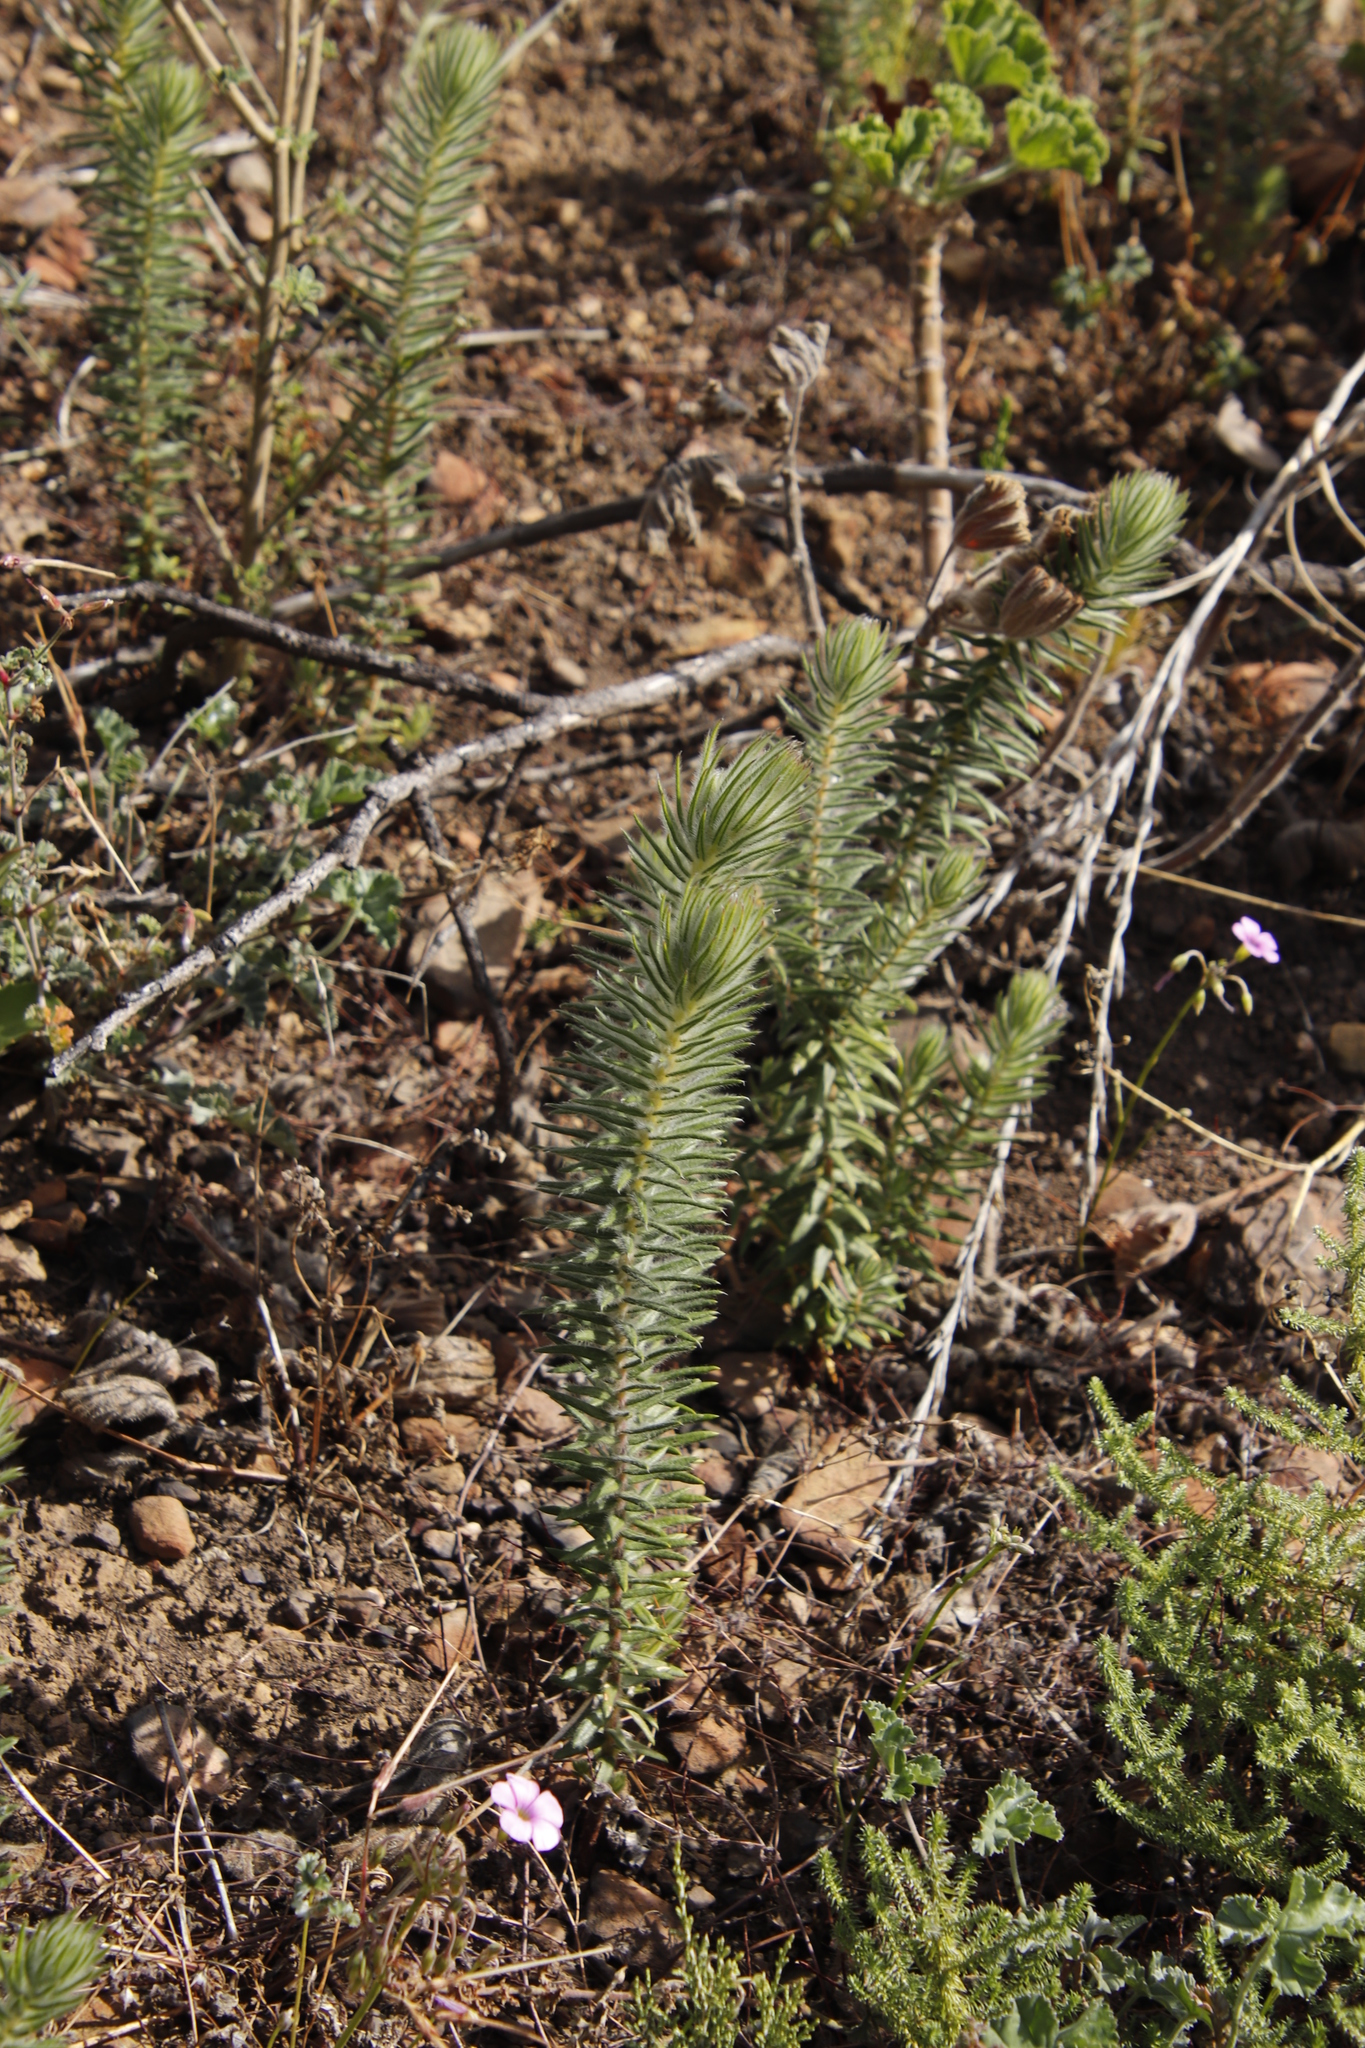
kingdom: Plantae
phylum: Tracheophyta
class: Magnoliopsida
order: Rosales
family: Rhamnaceae
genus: Phylica
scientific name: Phylica pubescens
